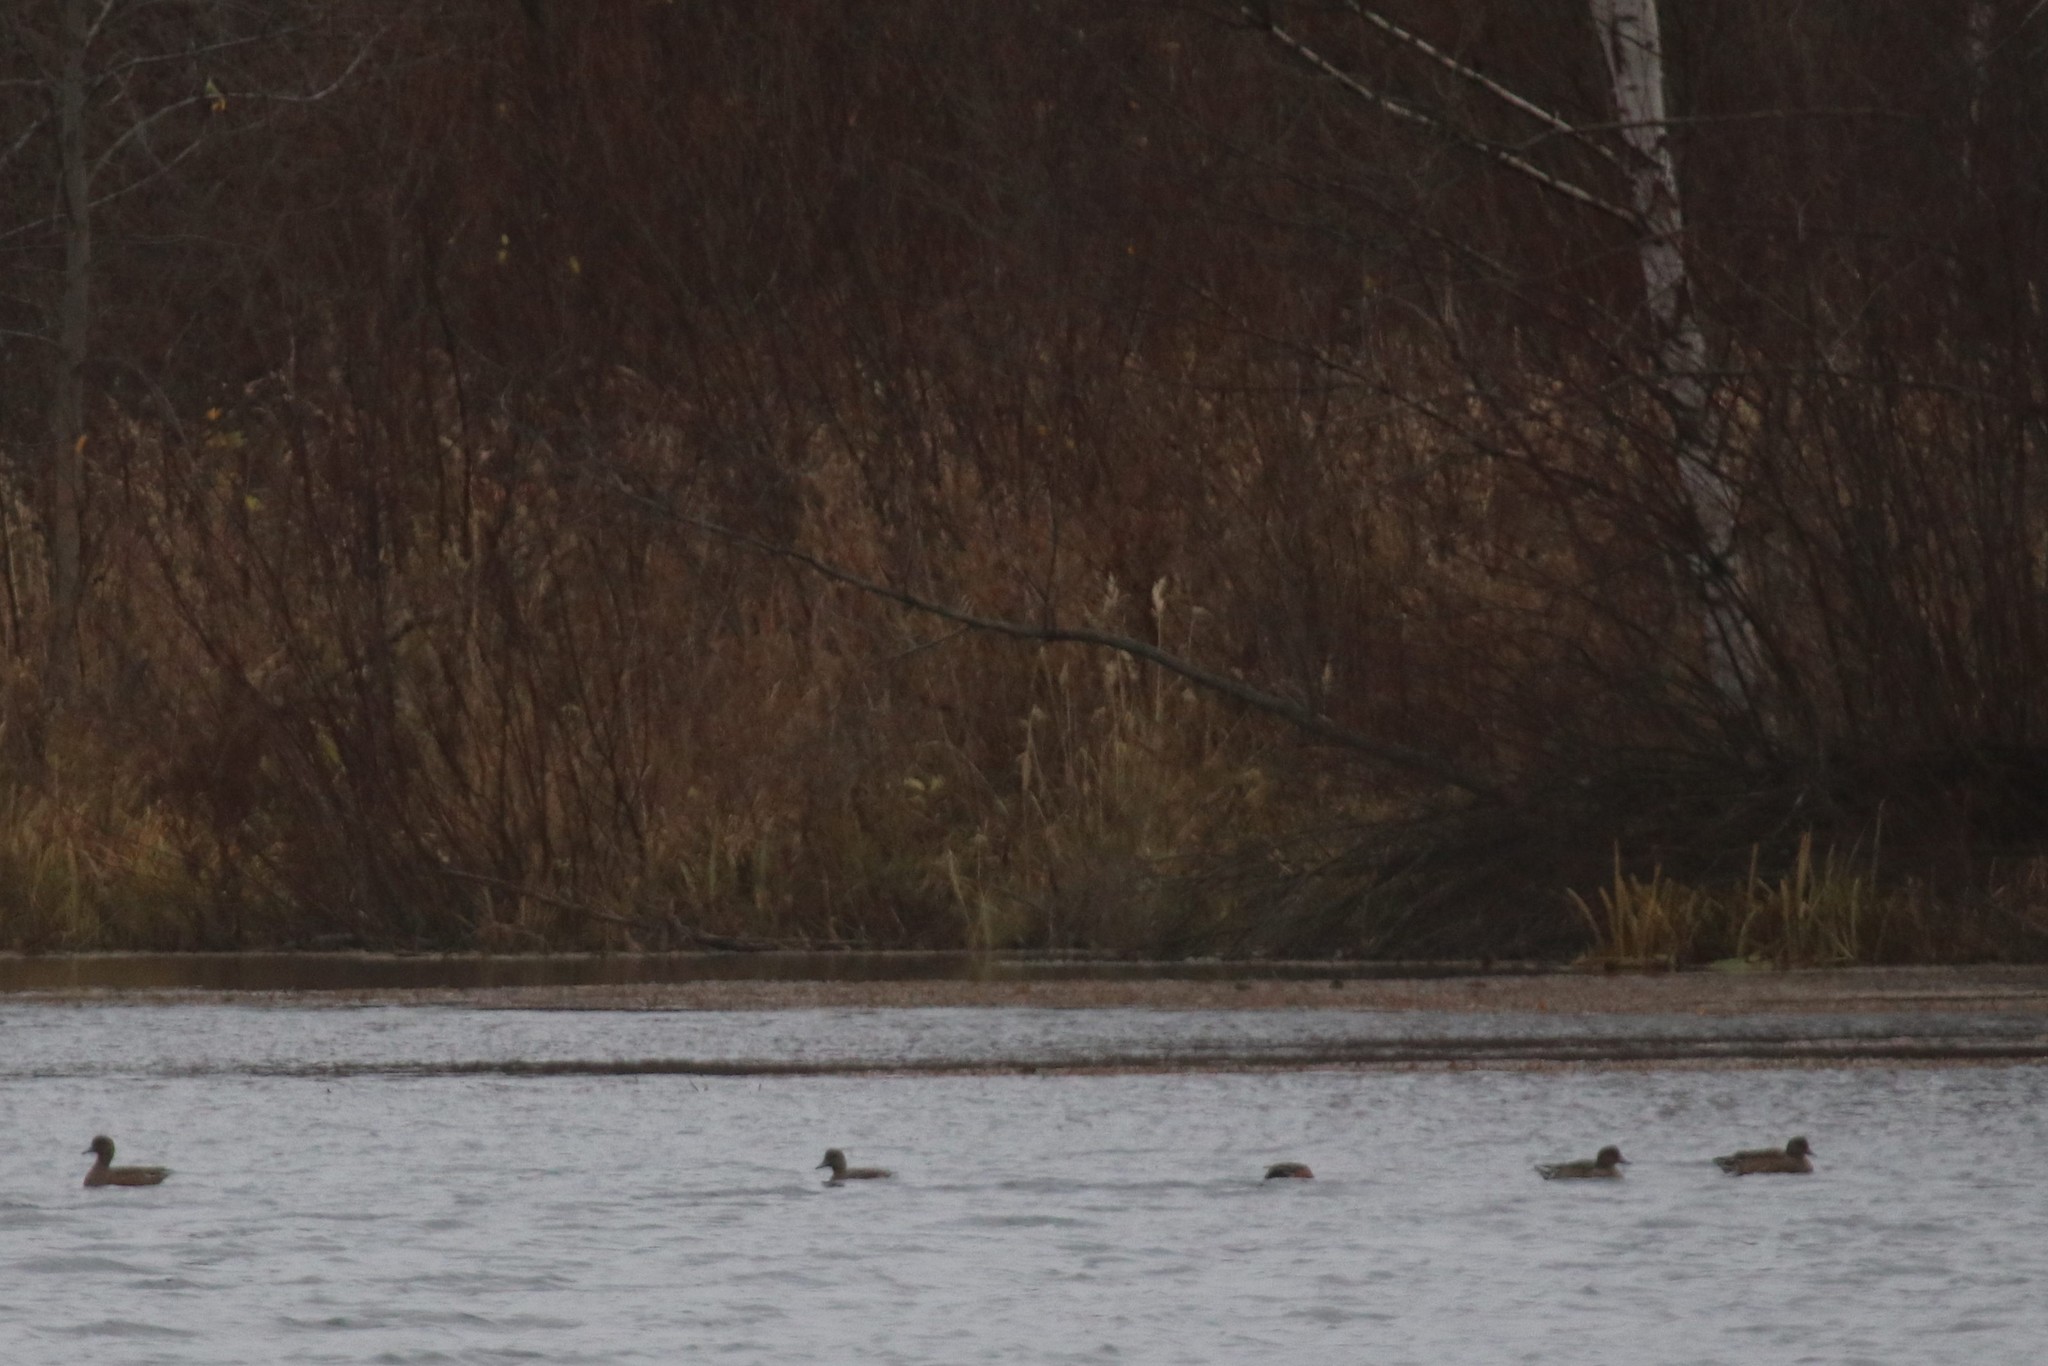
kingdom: Animalia
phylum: Chordata
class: Aves
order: Anseriformes
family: Anatidae
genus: Mareca
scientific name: Mareca penelope
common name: Eurasian wigeon
